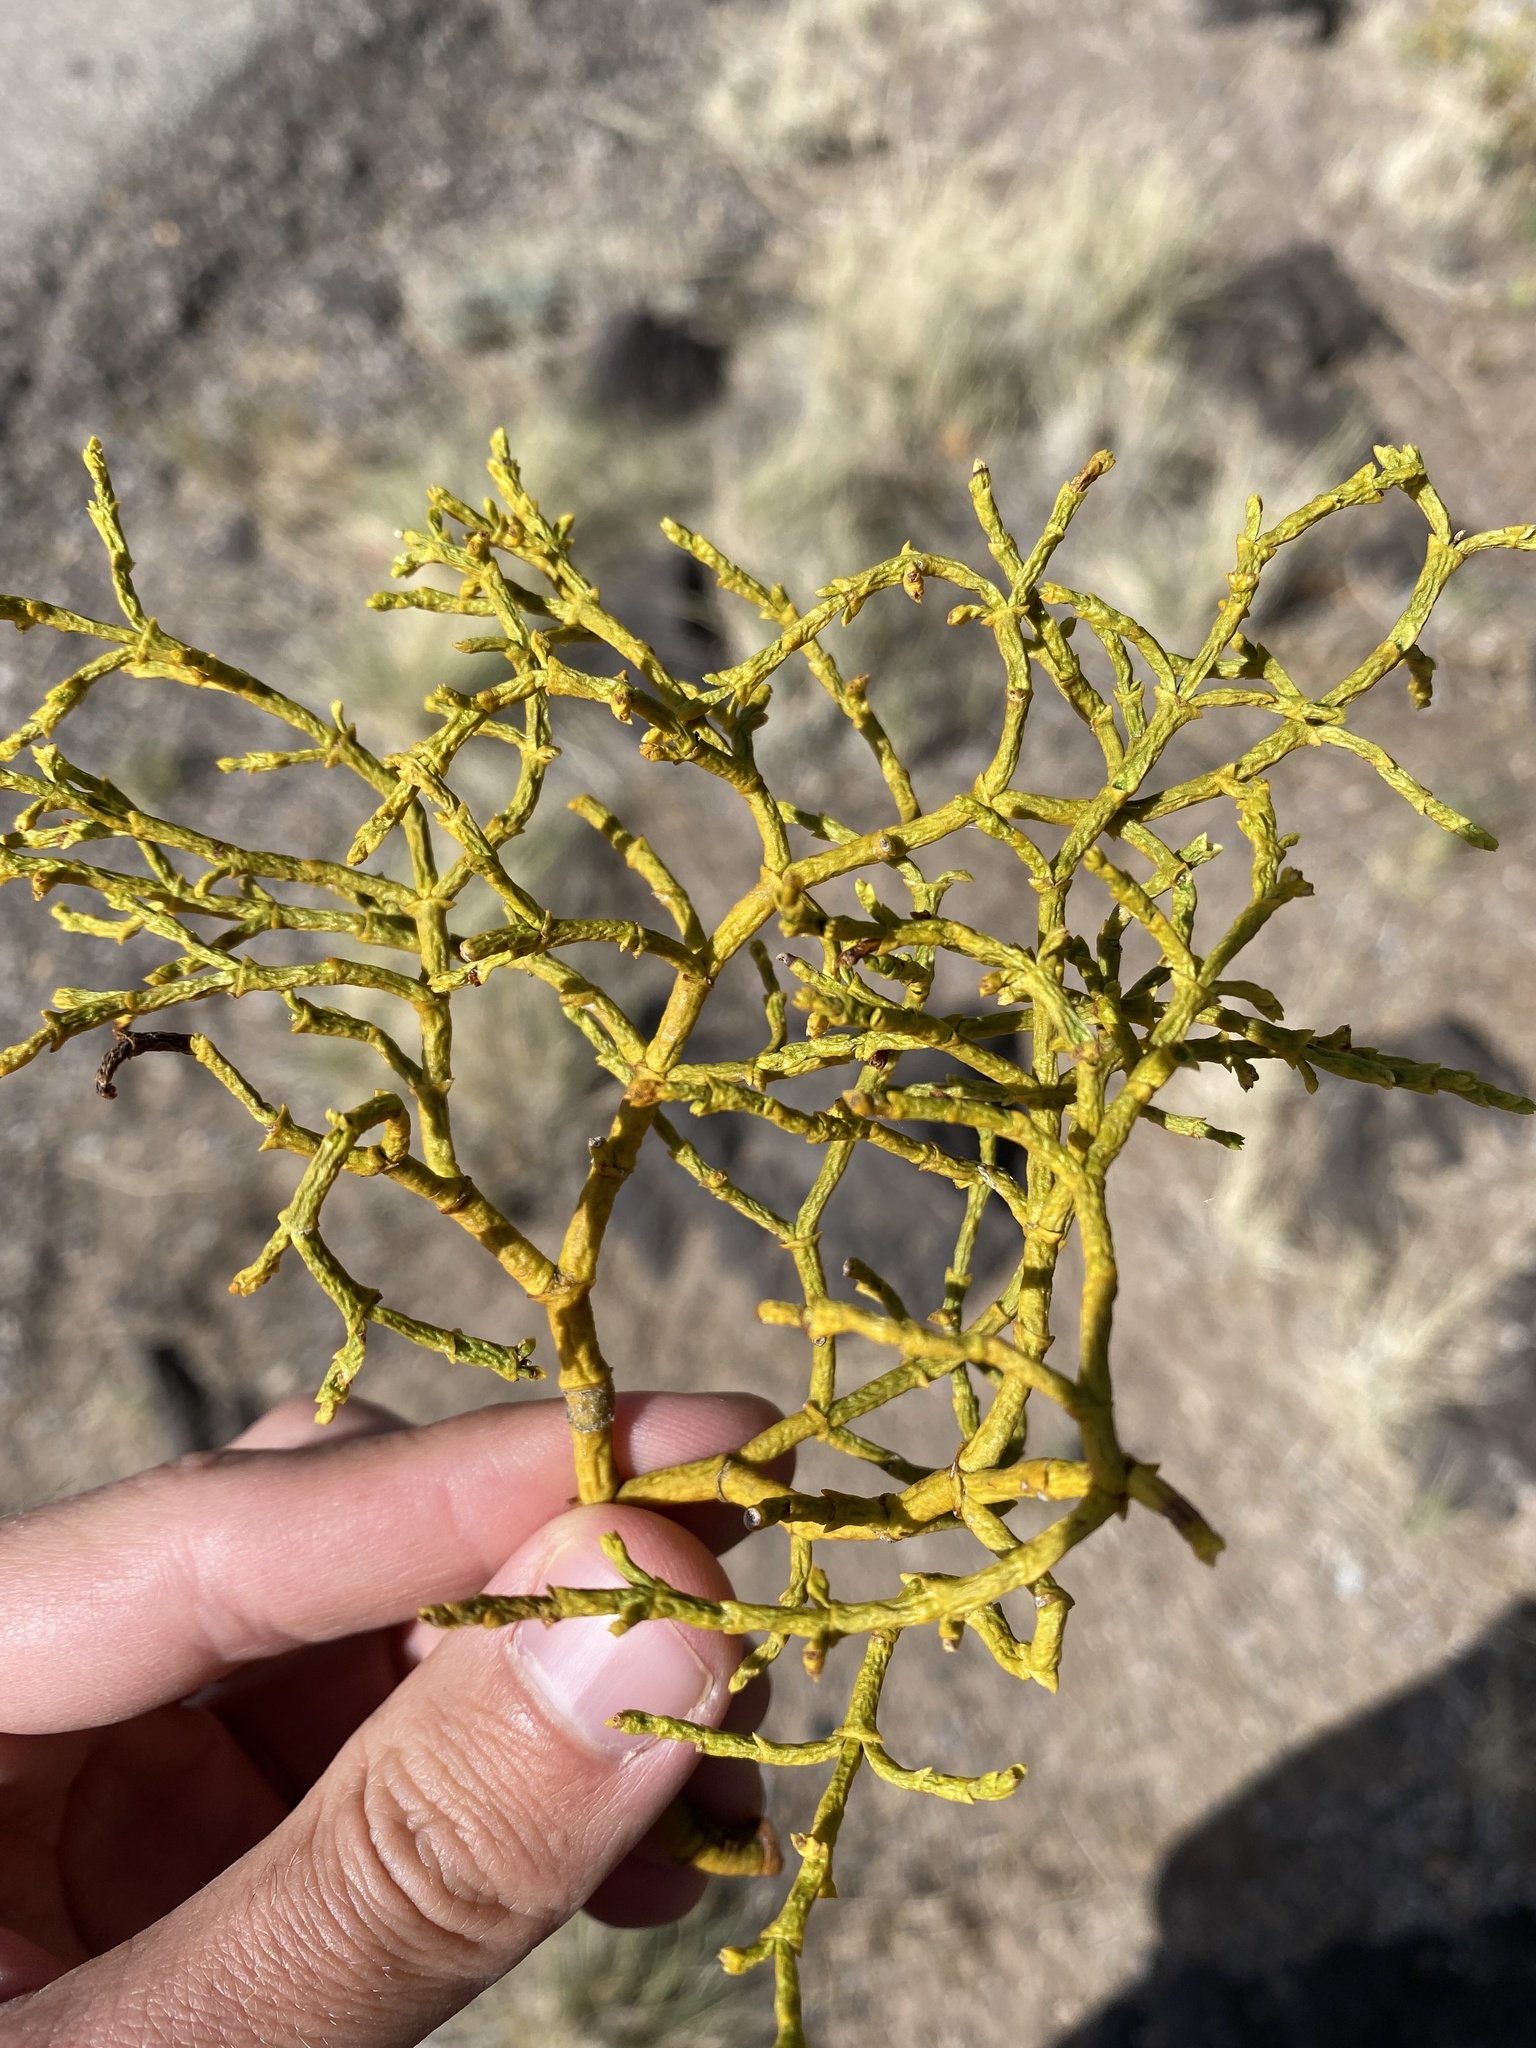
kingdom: Plantae
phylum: Tracheophyta
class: Magnoliopsida
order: Santalales
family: Viscaceae
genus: Phoradendron
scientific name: Phoradendron juniperinum
